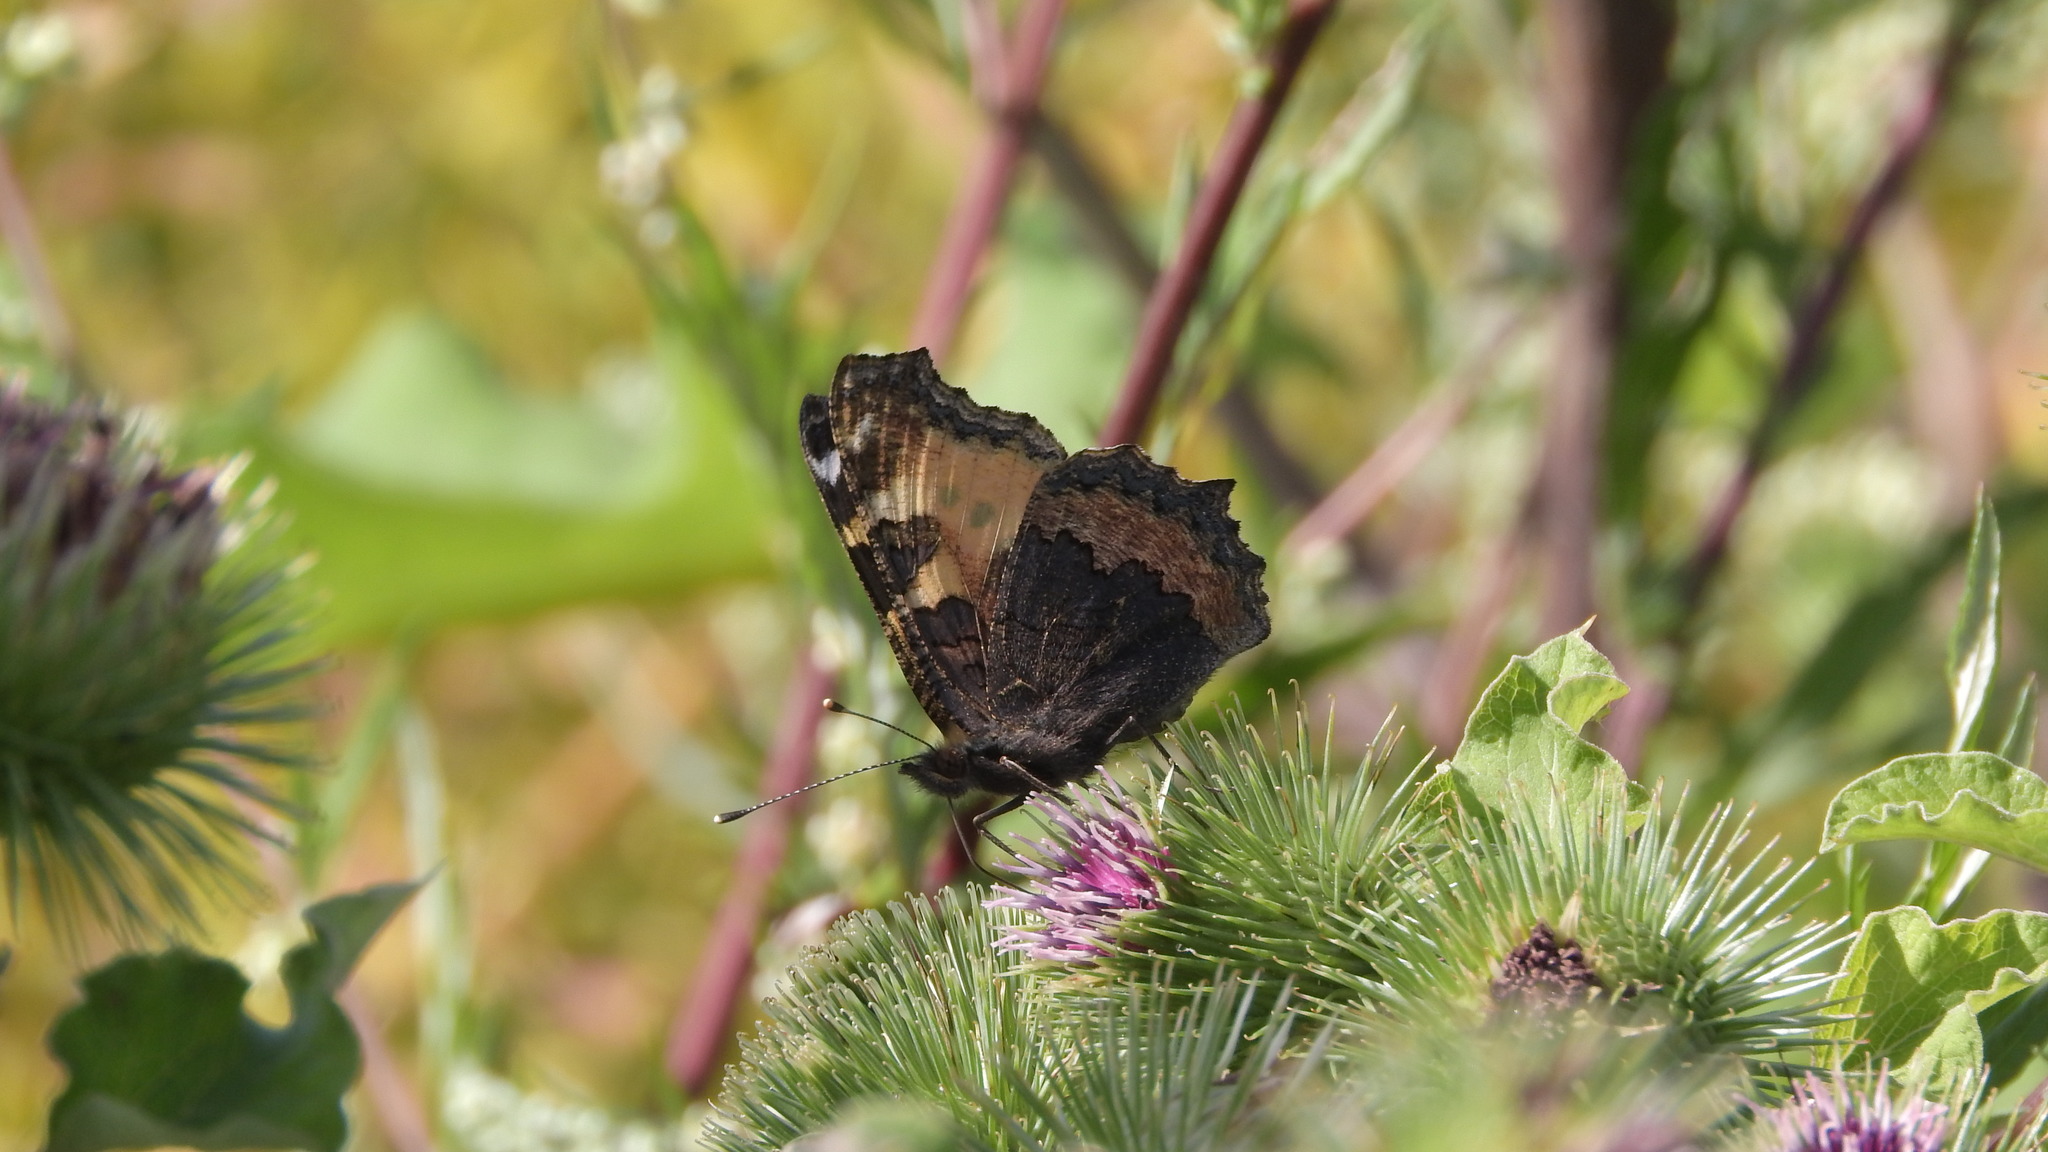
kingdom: Animalia
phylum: Arthropoda
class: Insecta
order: Lepidoptera
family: Nymphalidae
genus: Aglais
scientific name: Aglais urticae
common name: Small tortoiseshell
